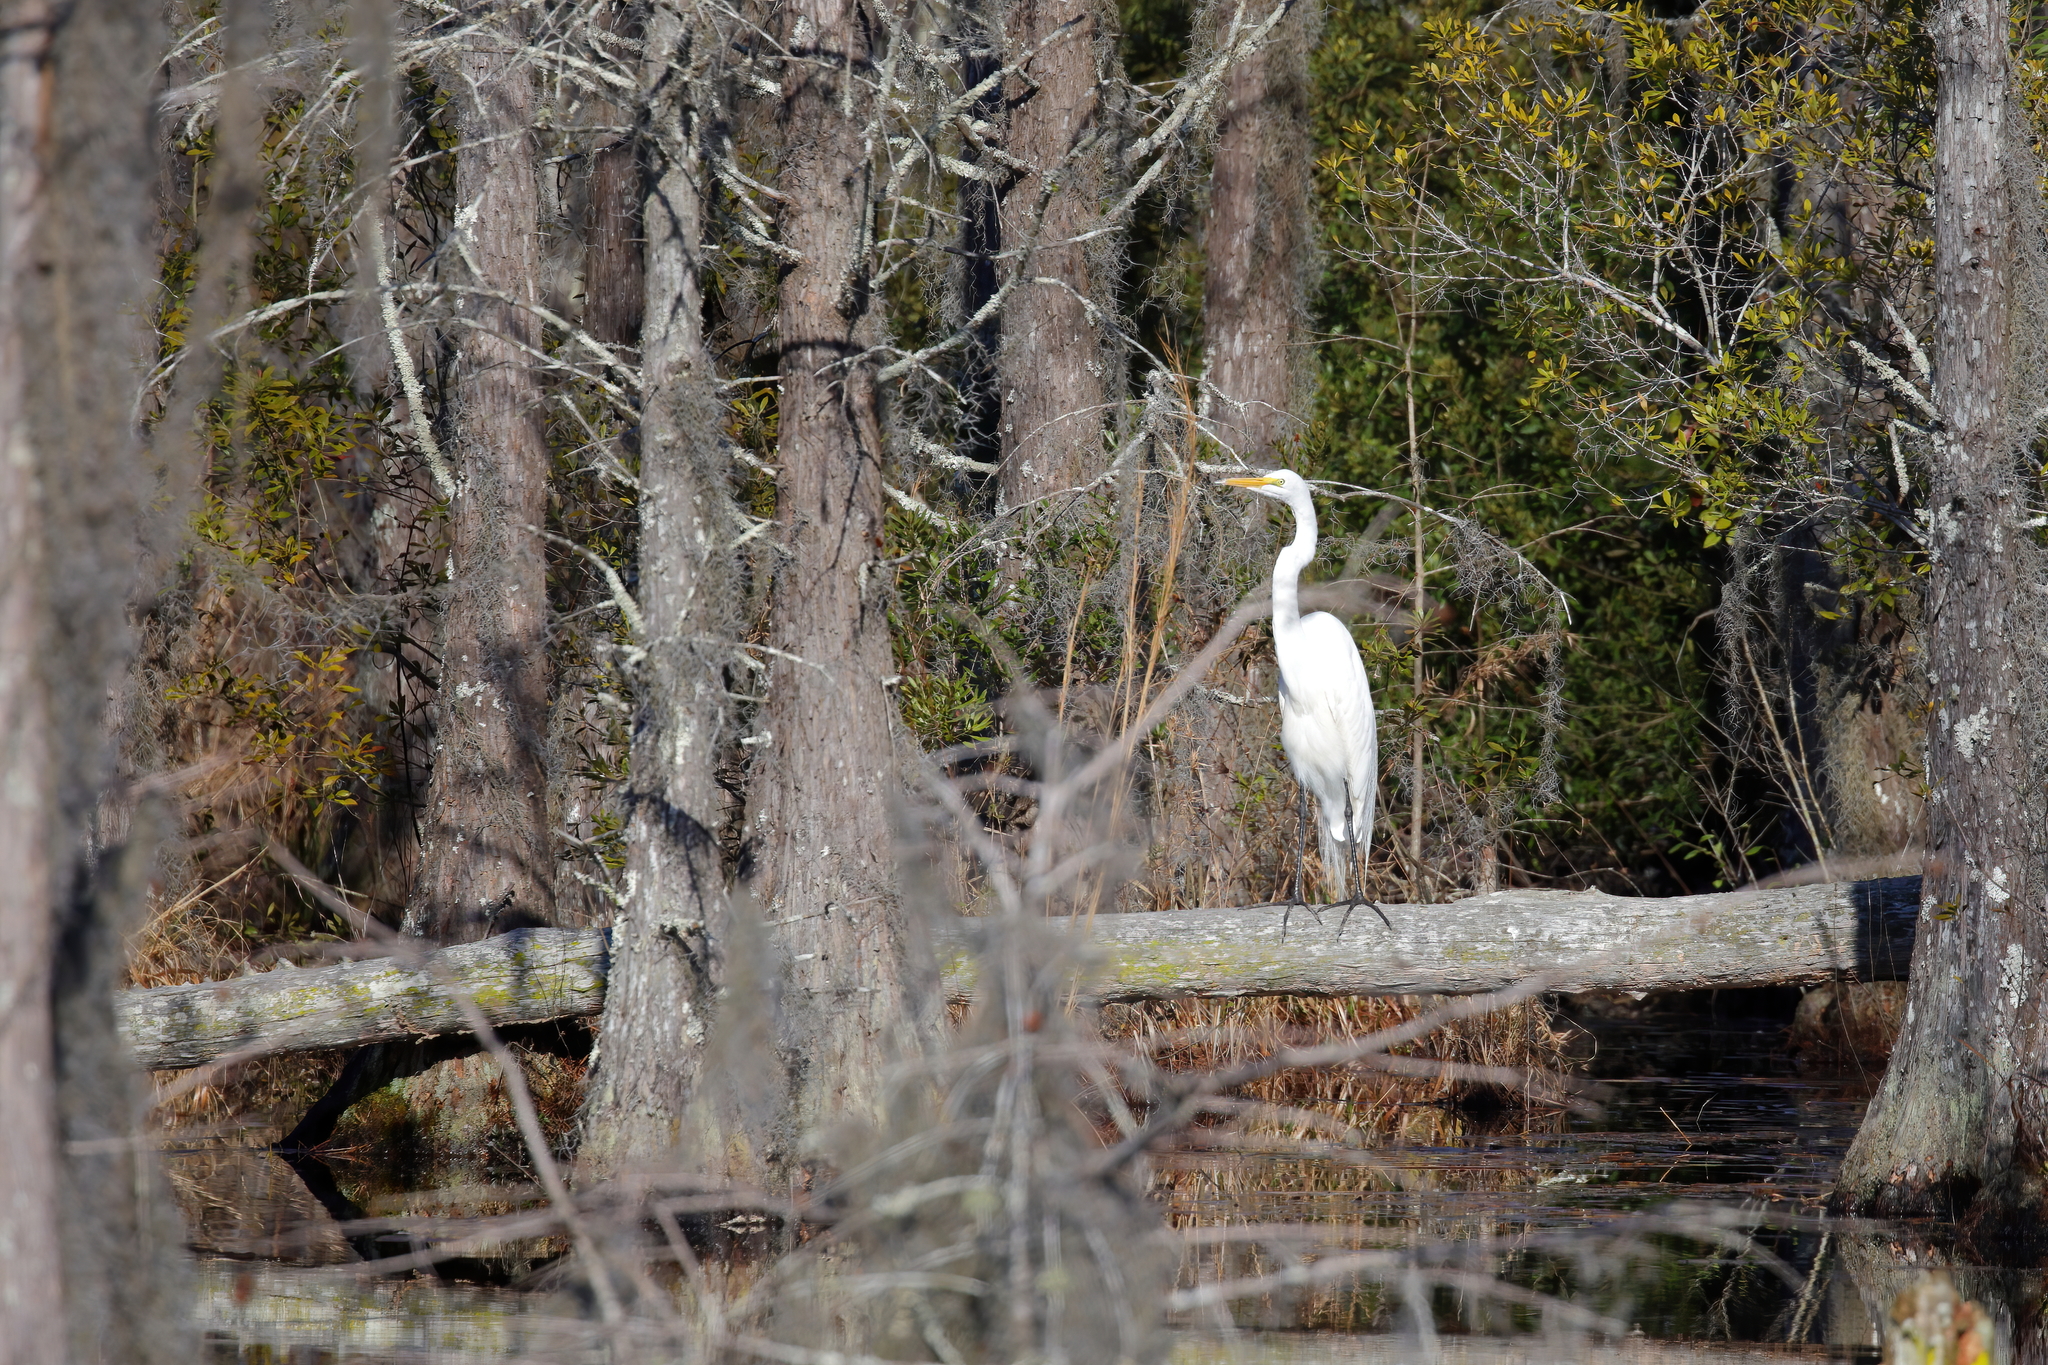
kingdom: Animalia
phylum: Chordata
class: Aves
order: Pelecaniformes
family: Ardeidae
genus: Ardea
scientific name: Ardea alba
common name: Great egret
